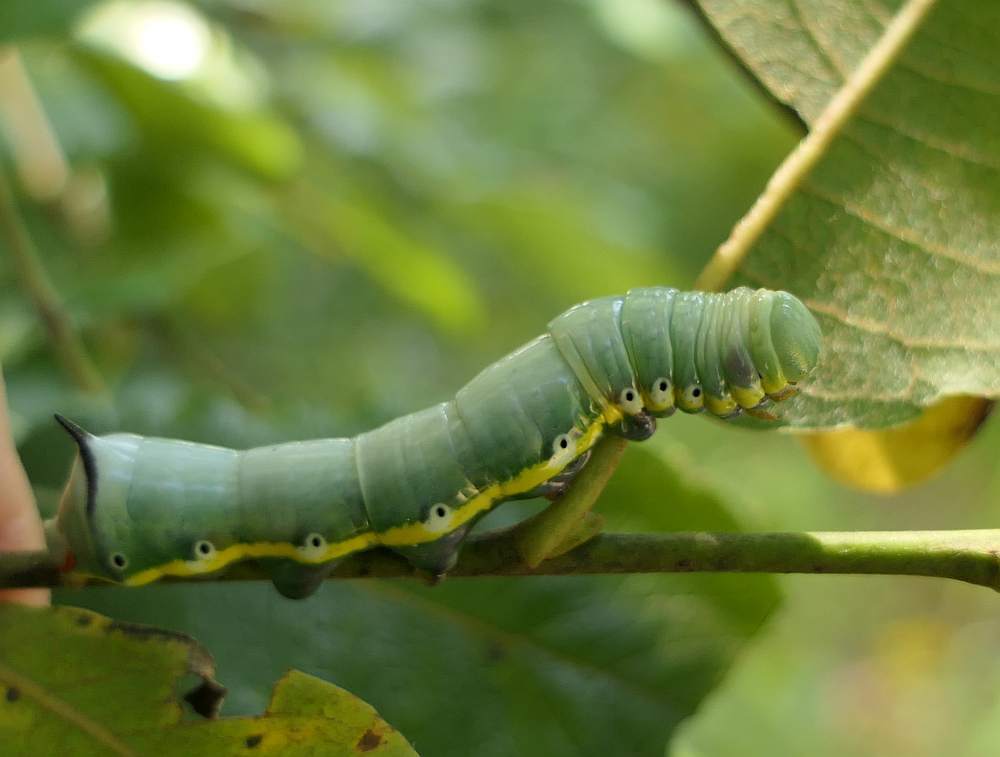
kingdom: Animalia
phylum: Arthropoda
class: Insecta
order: Lepidoptera
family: Notodontidae
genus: Pheosia
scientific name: Pheosia rimosa
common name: Black-rimmed prominent
